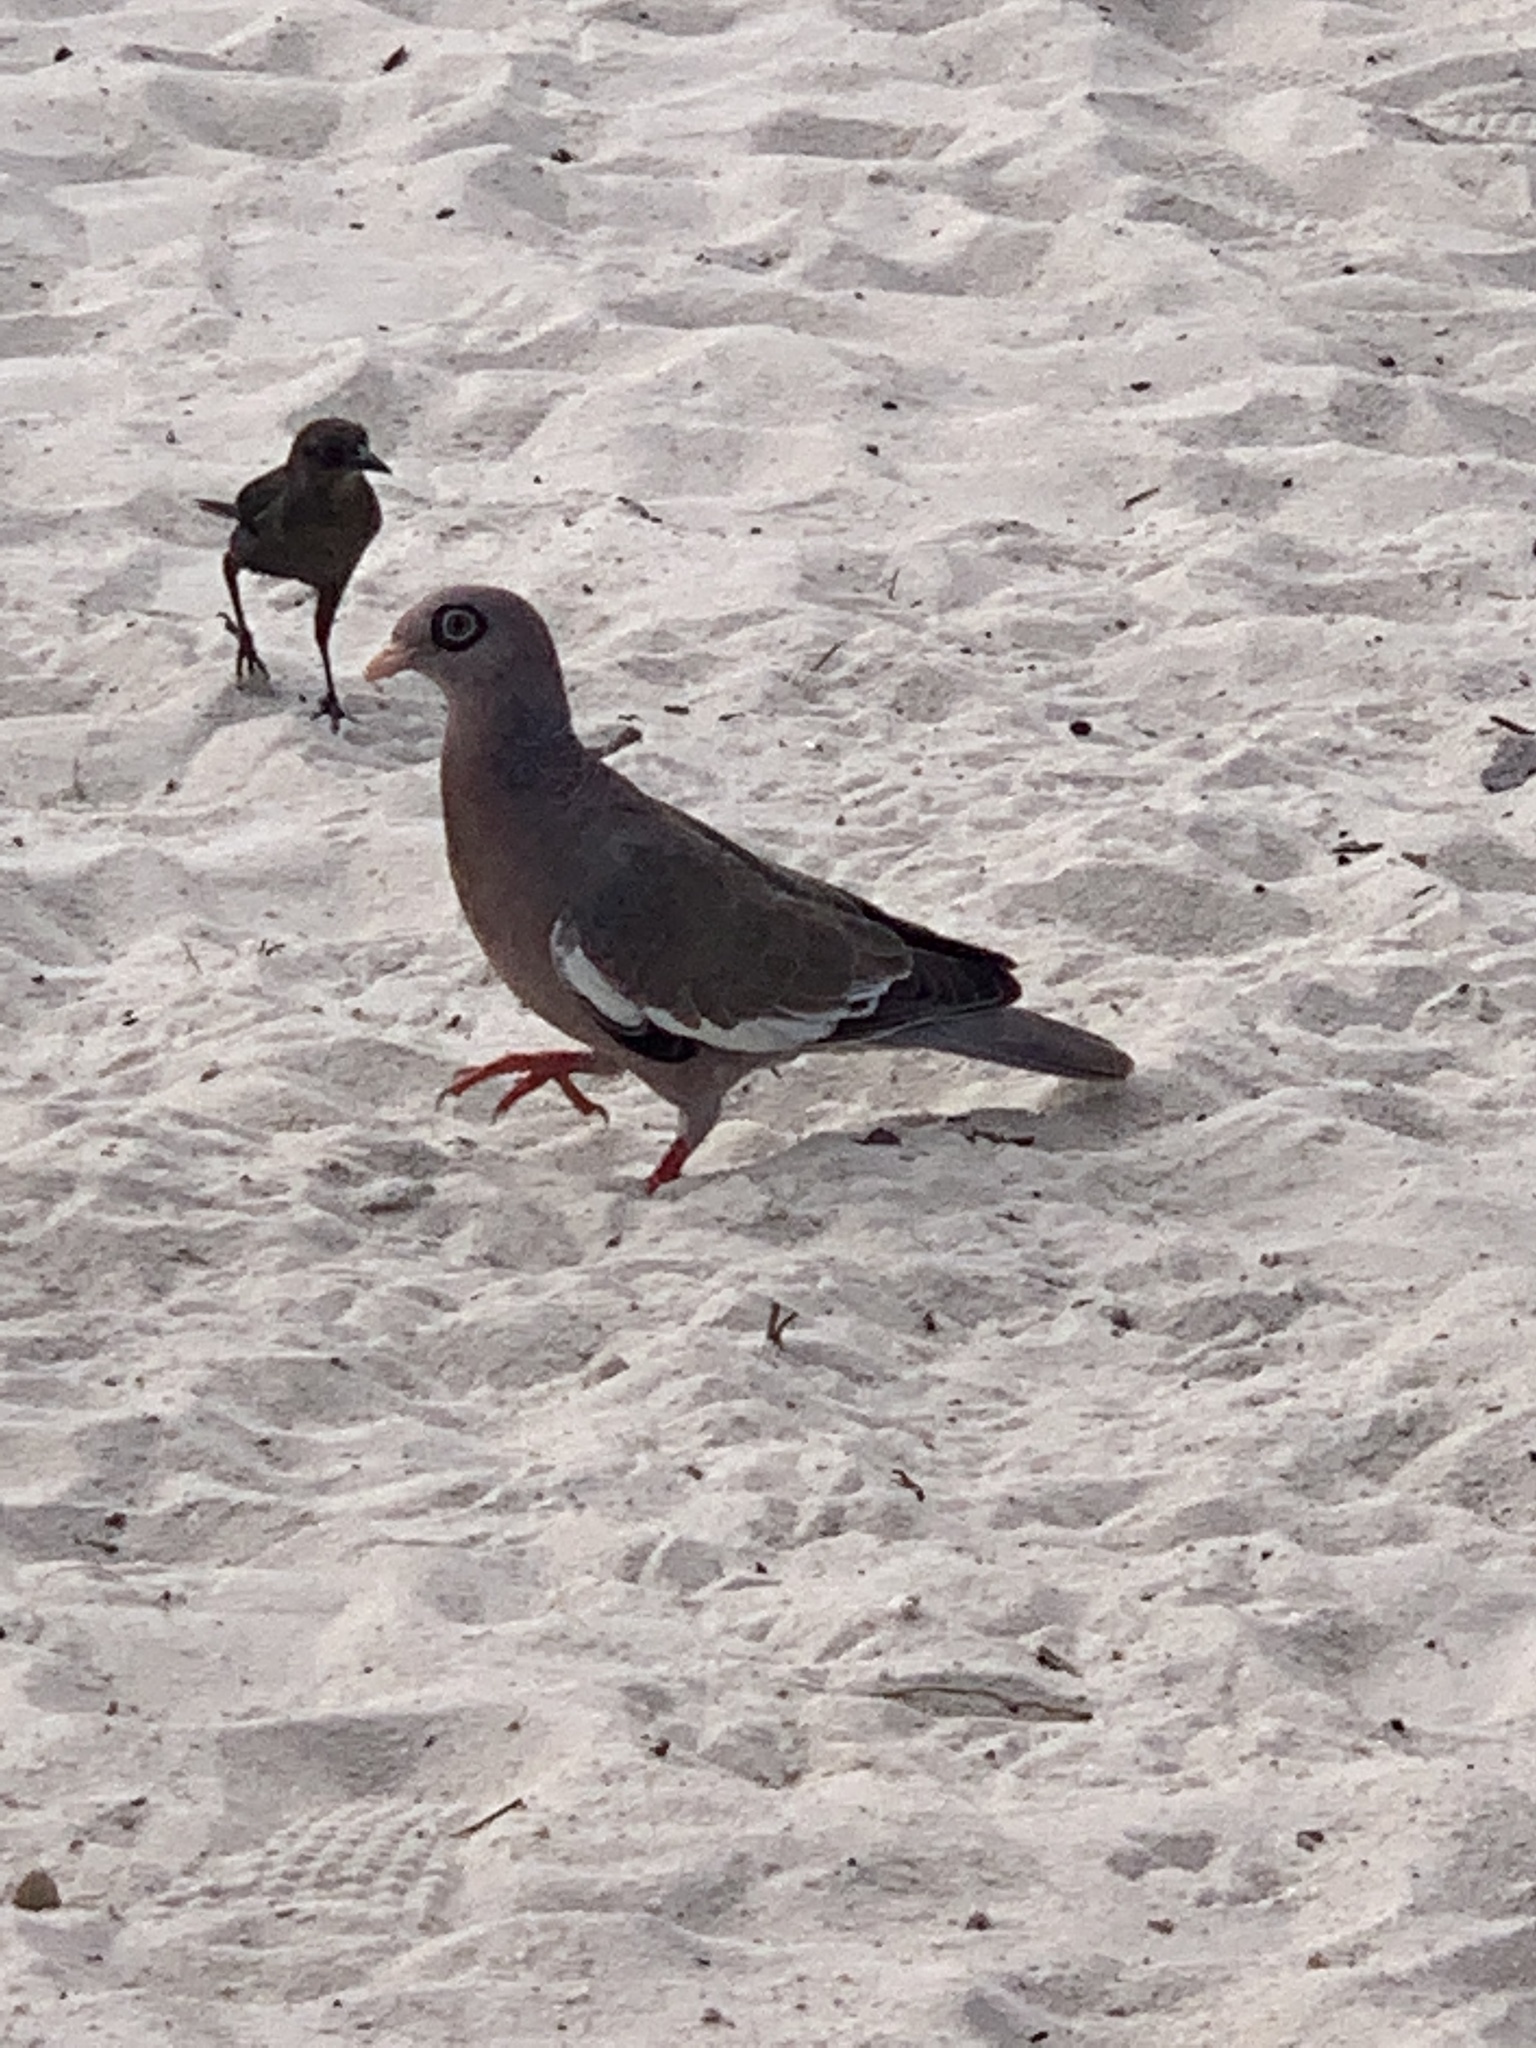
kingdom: Animalia
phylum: Chordata
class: Aves
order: Columbiformes
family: Columbidae
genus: Patagioenas
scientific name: Patagioenas corensis
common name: Bare-eyed pigeon
